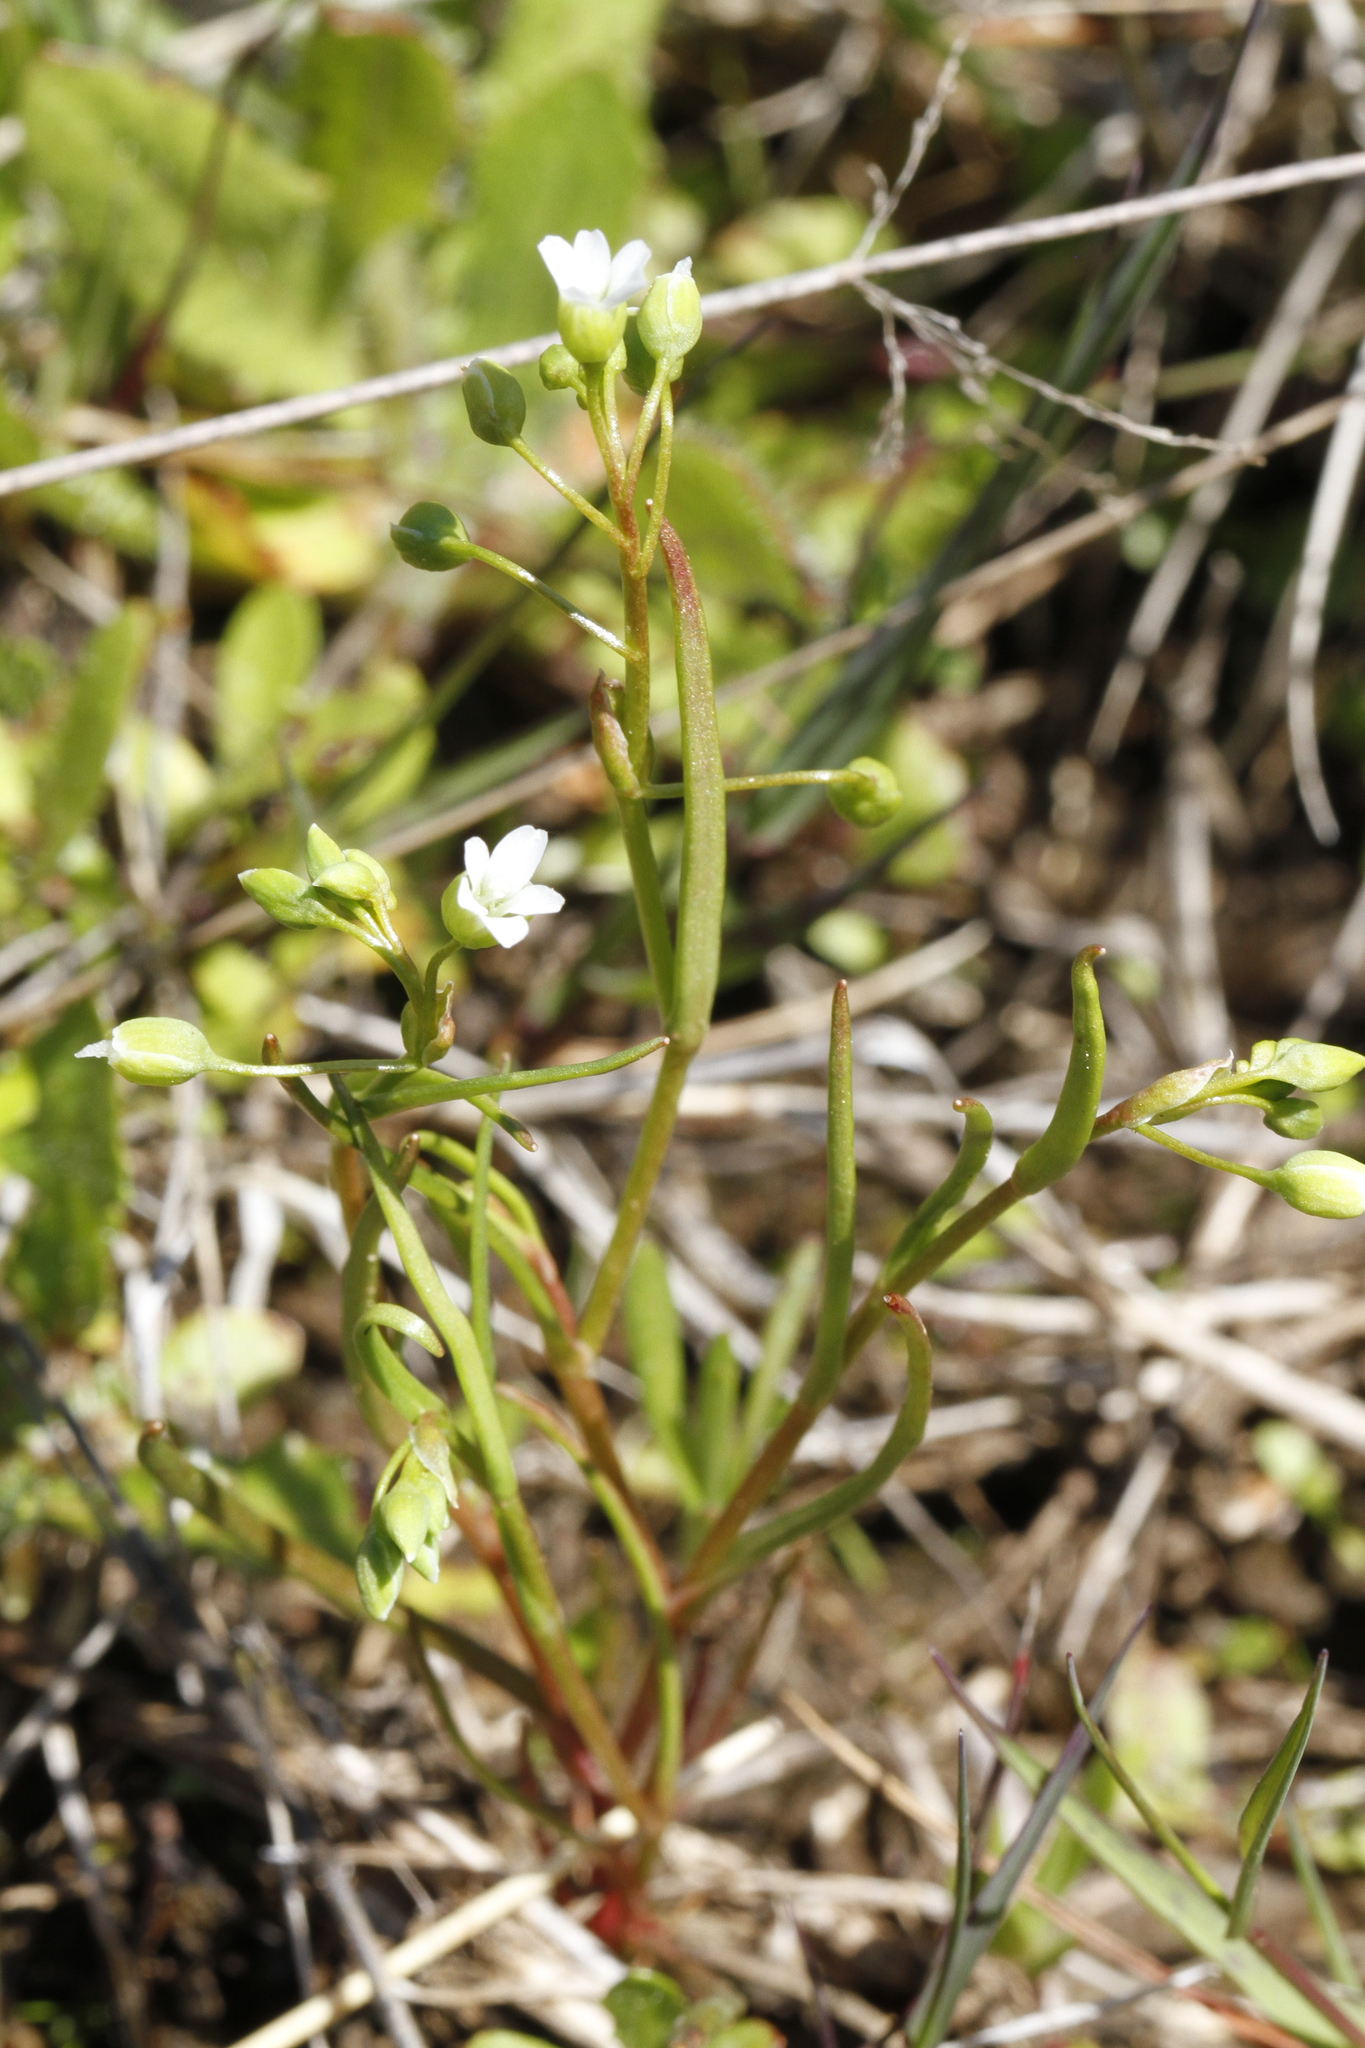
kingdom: Plantae
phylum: Tracheophyta
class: Magnoliopsida
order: Caryophyllales
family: Montiaceae
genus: Montia
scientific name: Montia linearis
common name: Narrow-leaf montia
